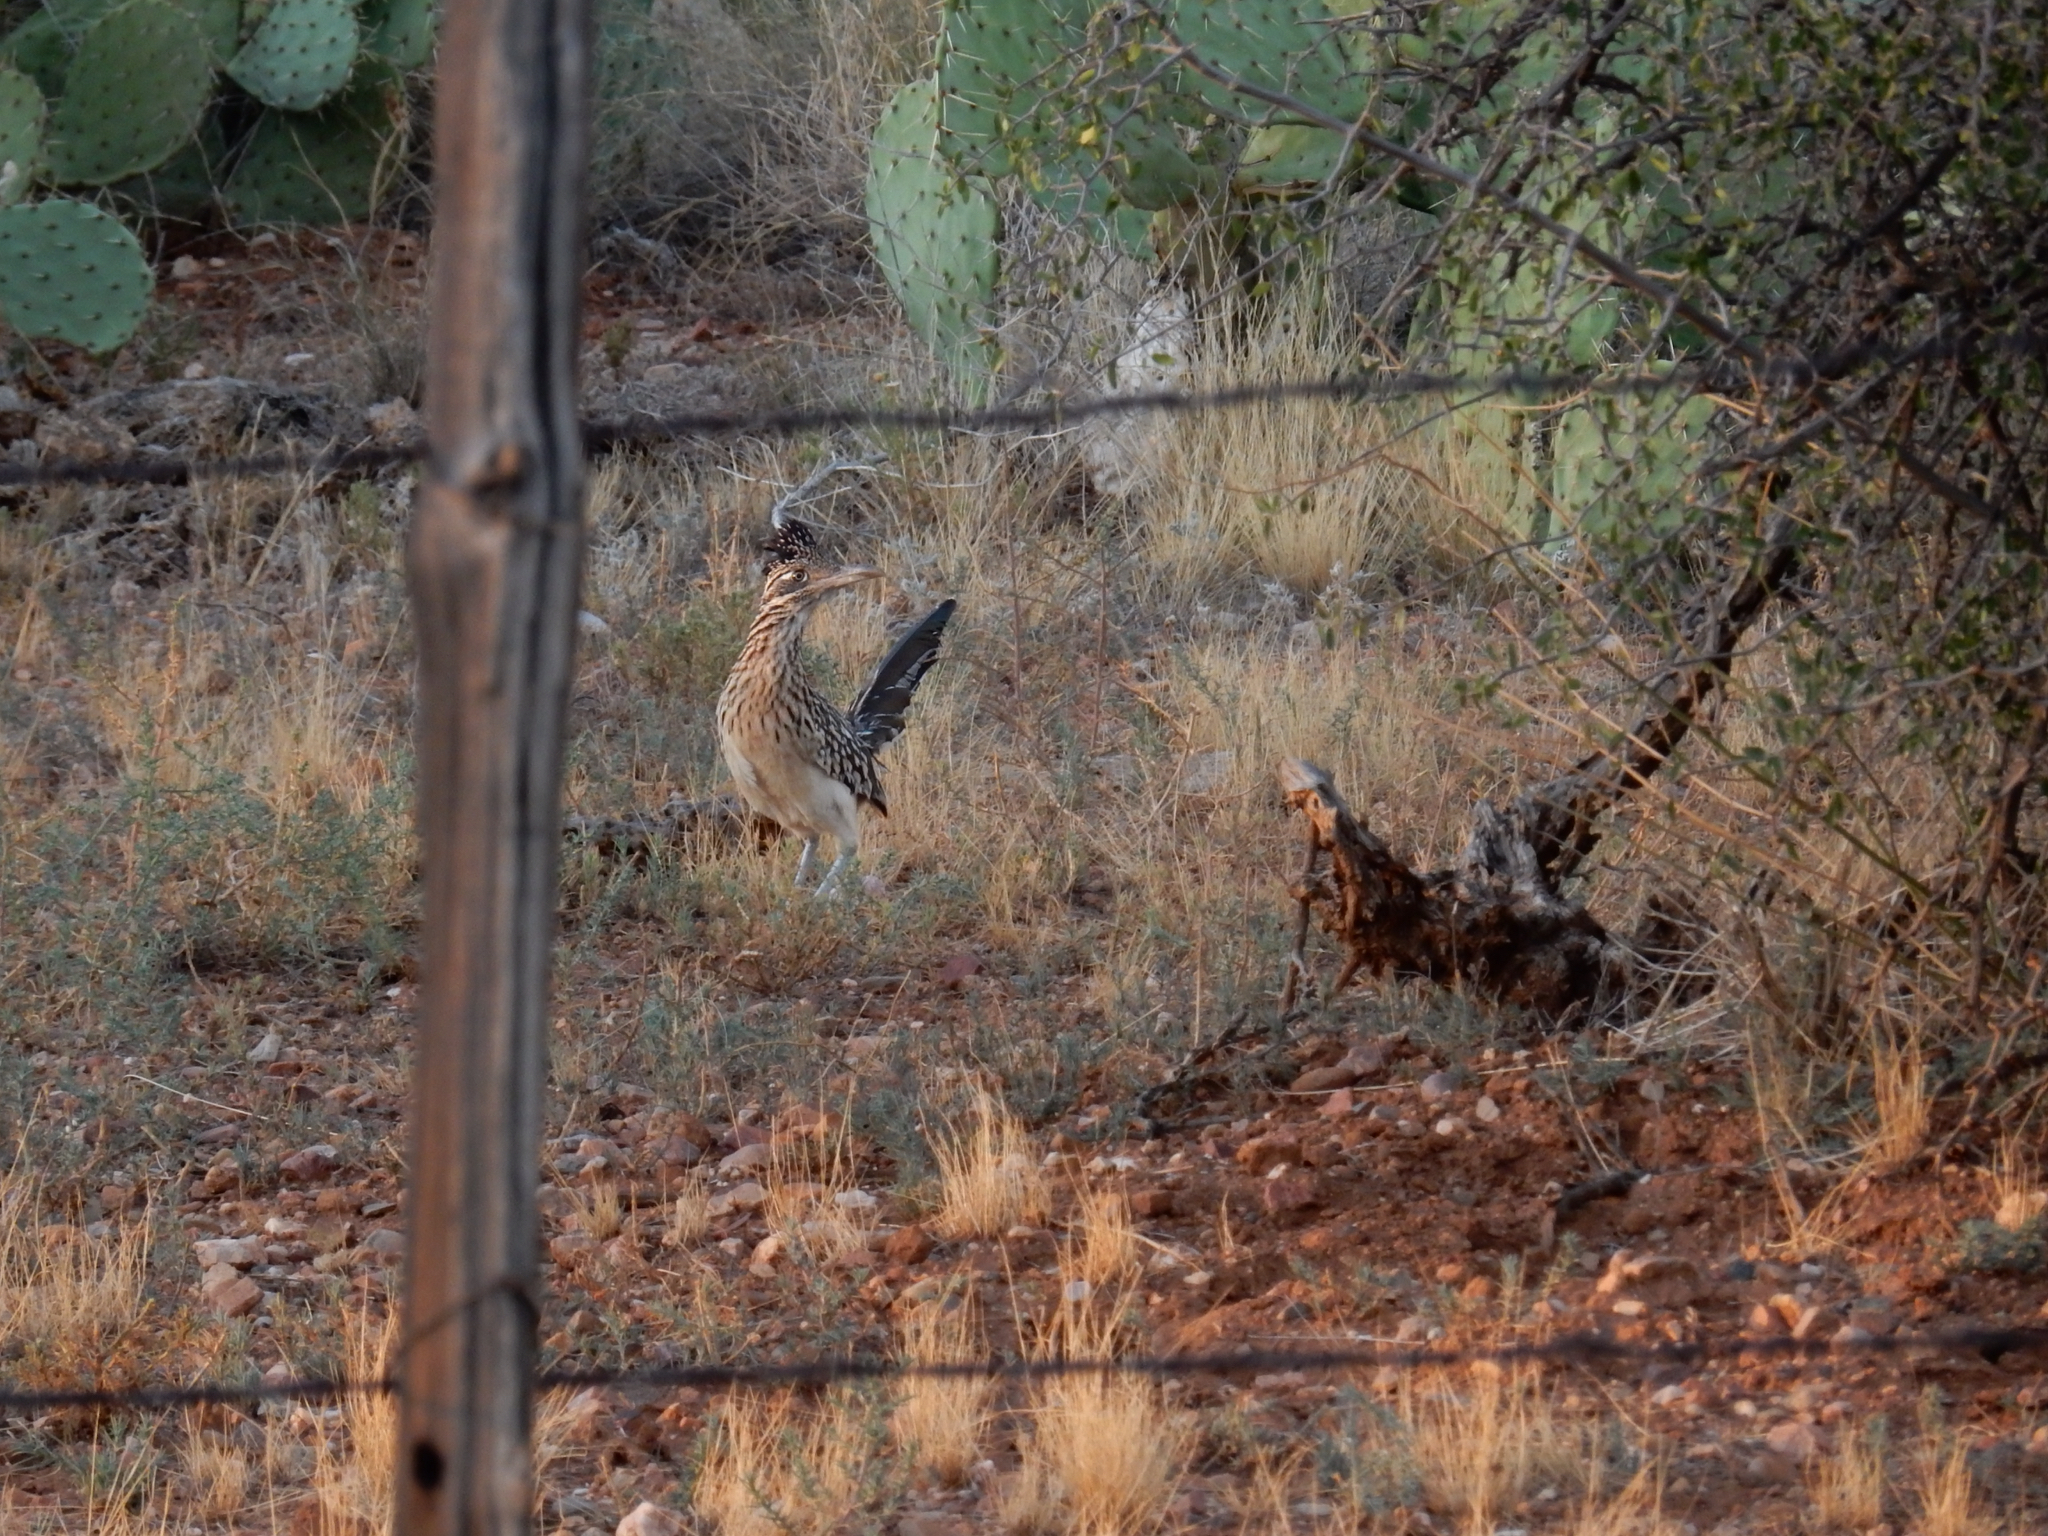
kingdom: Animalia
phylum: Chordata
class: Aves
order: Cuculiformes
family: Cuculidae
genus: Geococcyx
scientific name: Geococcyx californianus
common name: Greater roadrunner
